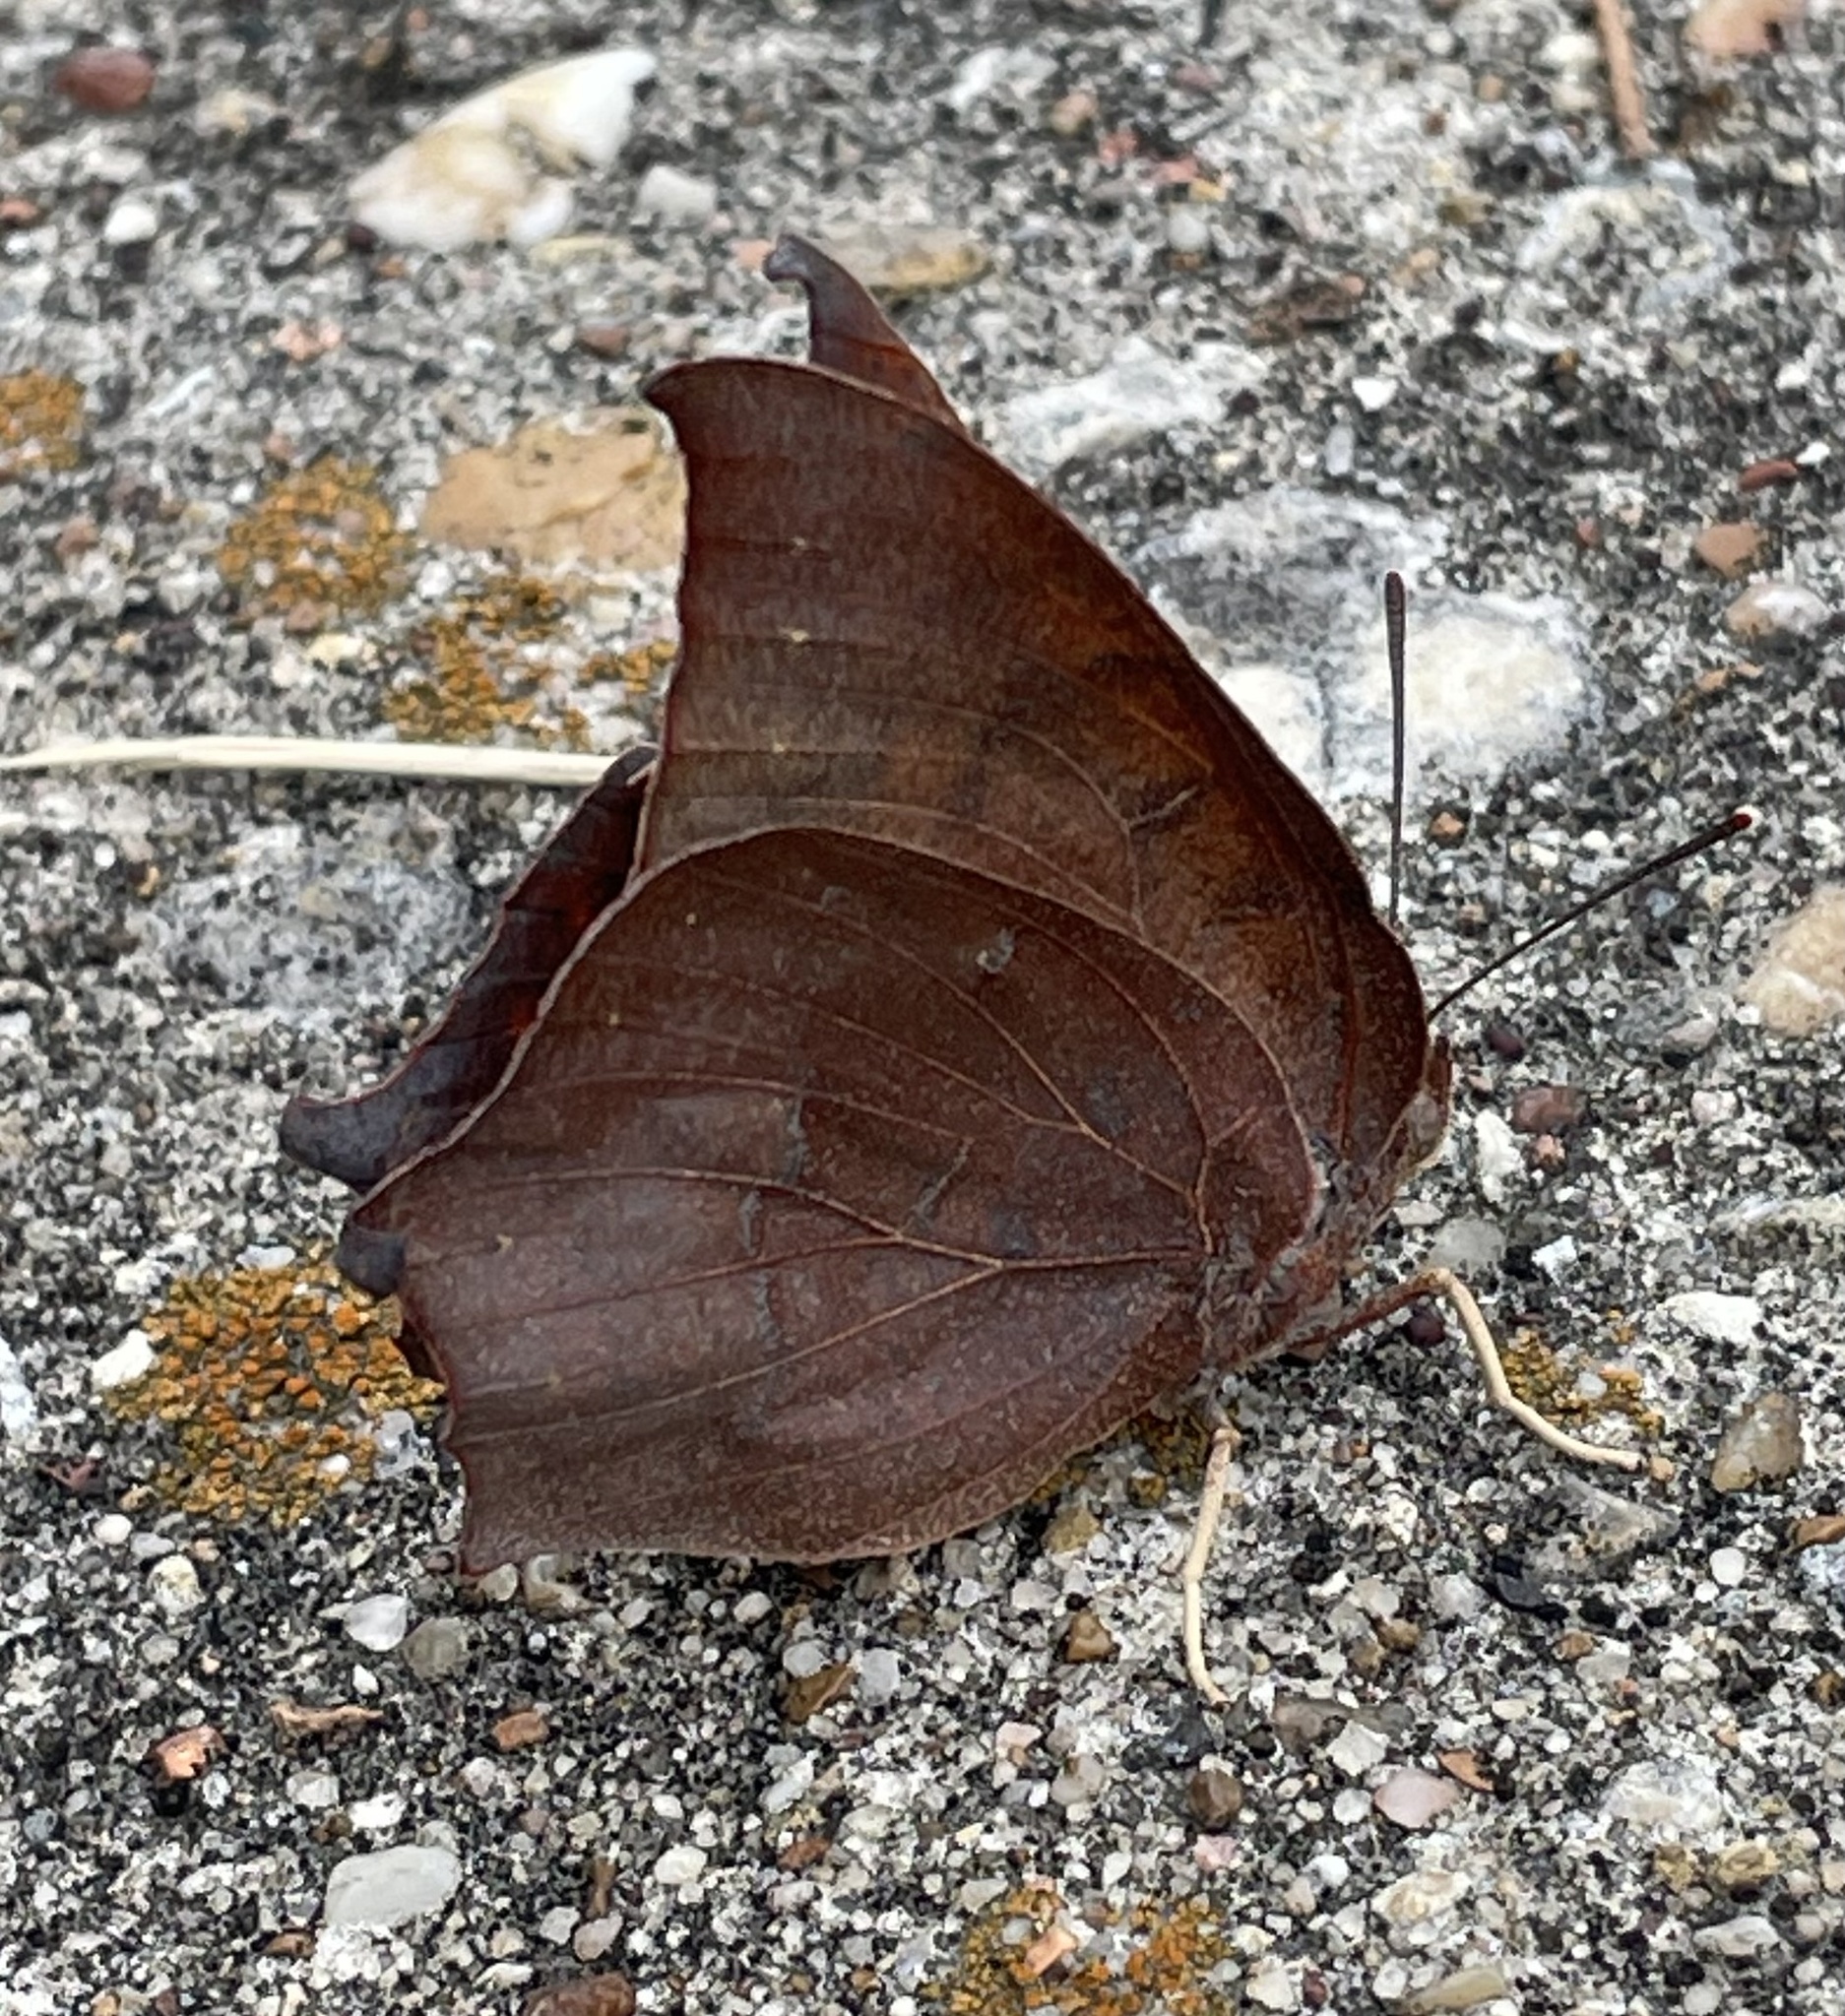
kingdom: Animalia
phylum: Arthropoda
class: Insecta
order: Lepidoptera
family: Nymphalidae
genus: Anaea
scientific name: Anaea andria
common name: Goatweed leafwing
